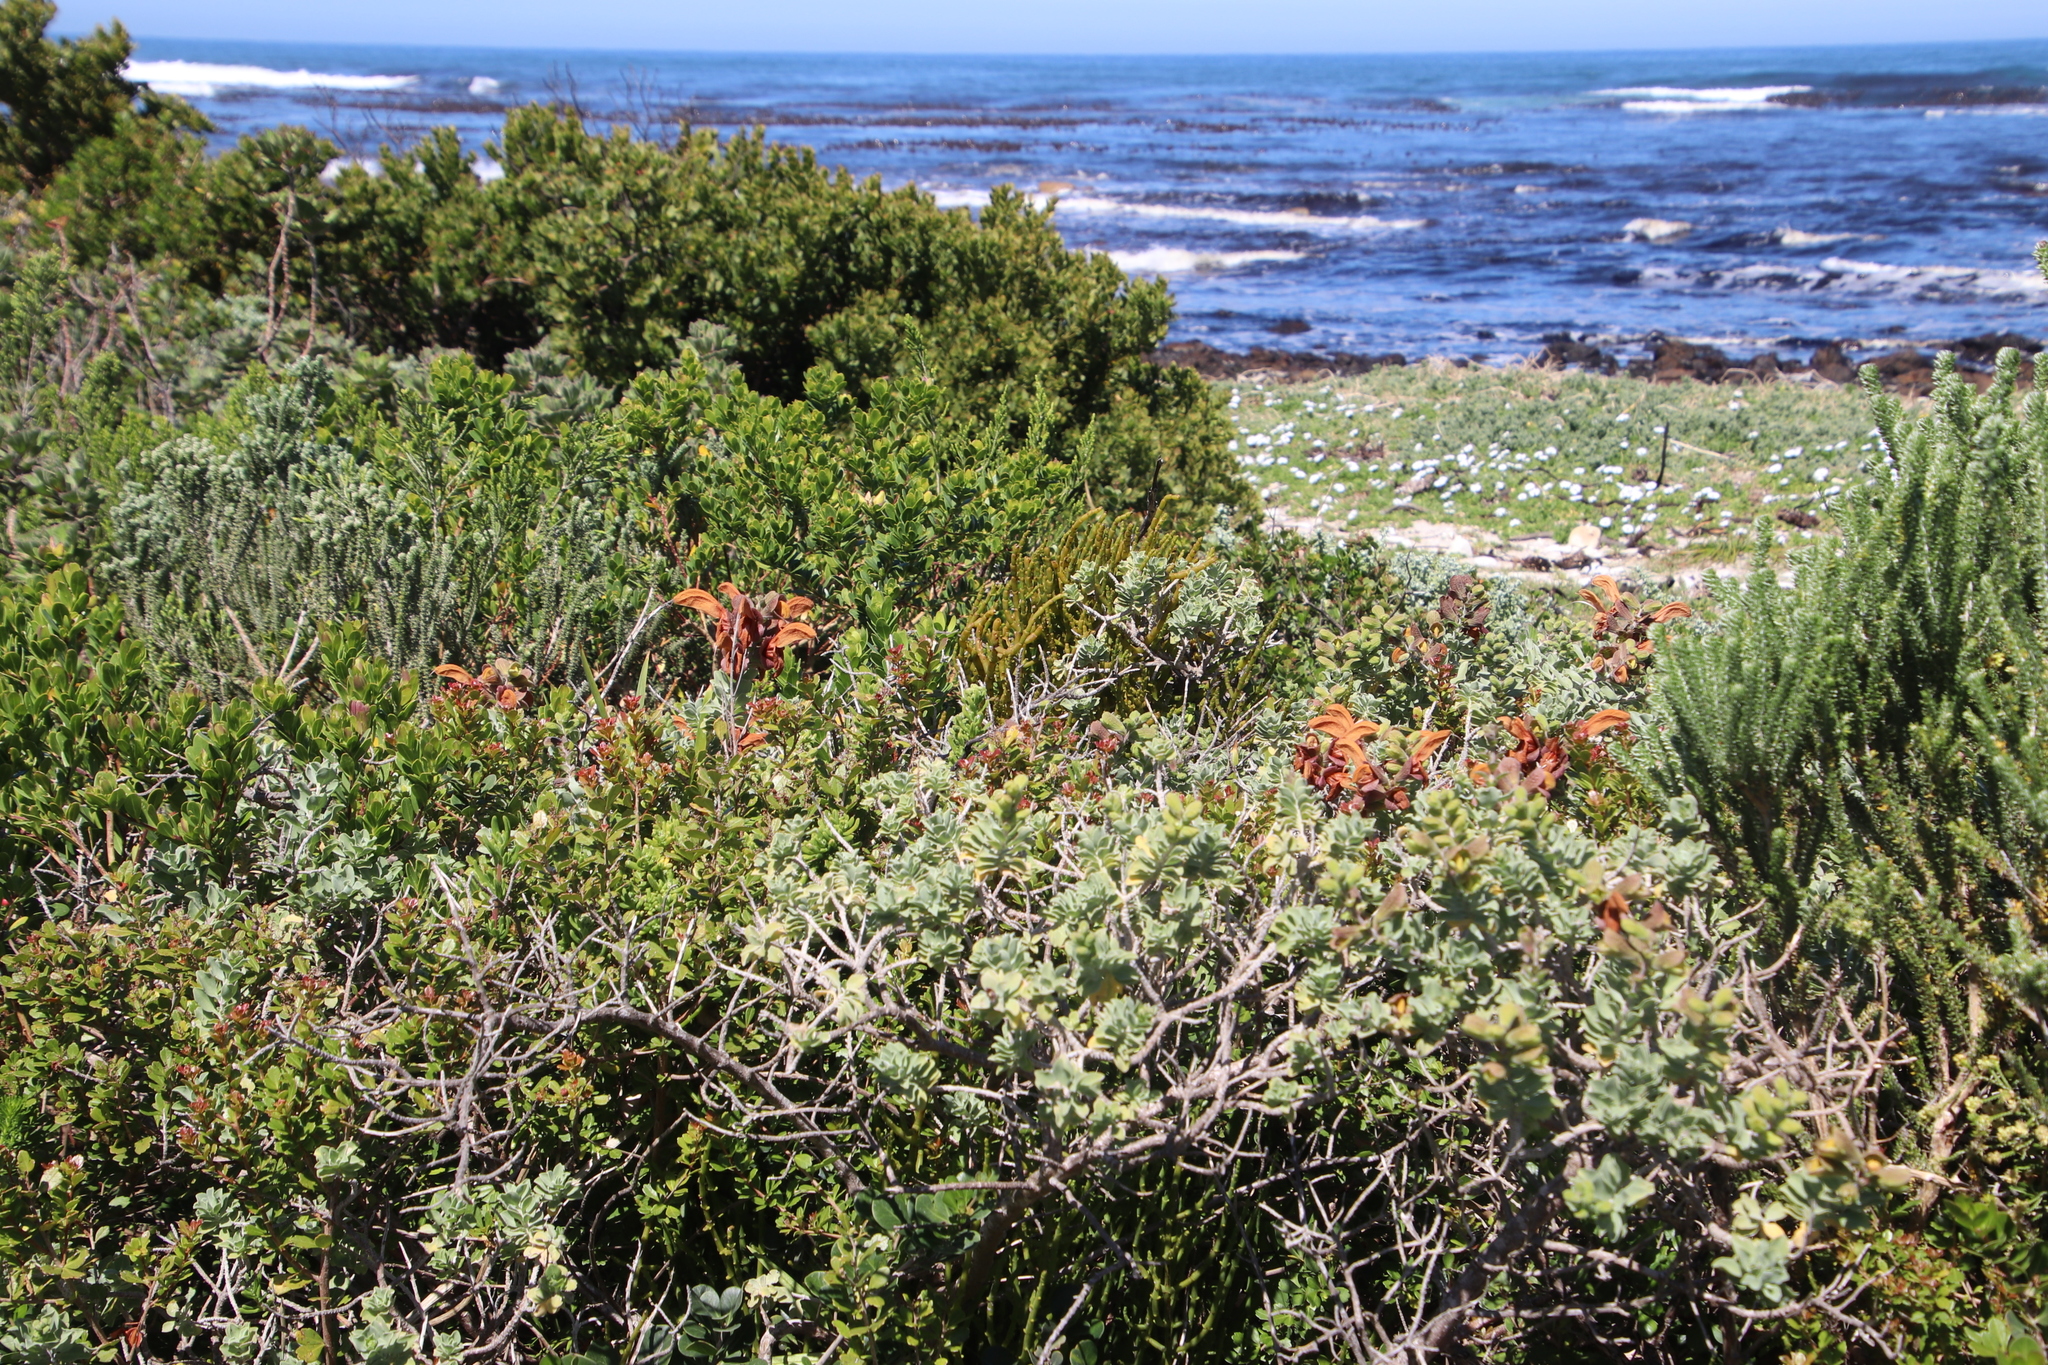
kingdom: Plantae
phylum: Tracheophyta
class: Magnoliopsida
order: Lamiales
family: Lamiaceae
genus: Salvia
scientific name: Salvia aurea
